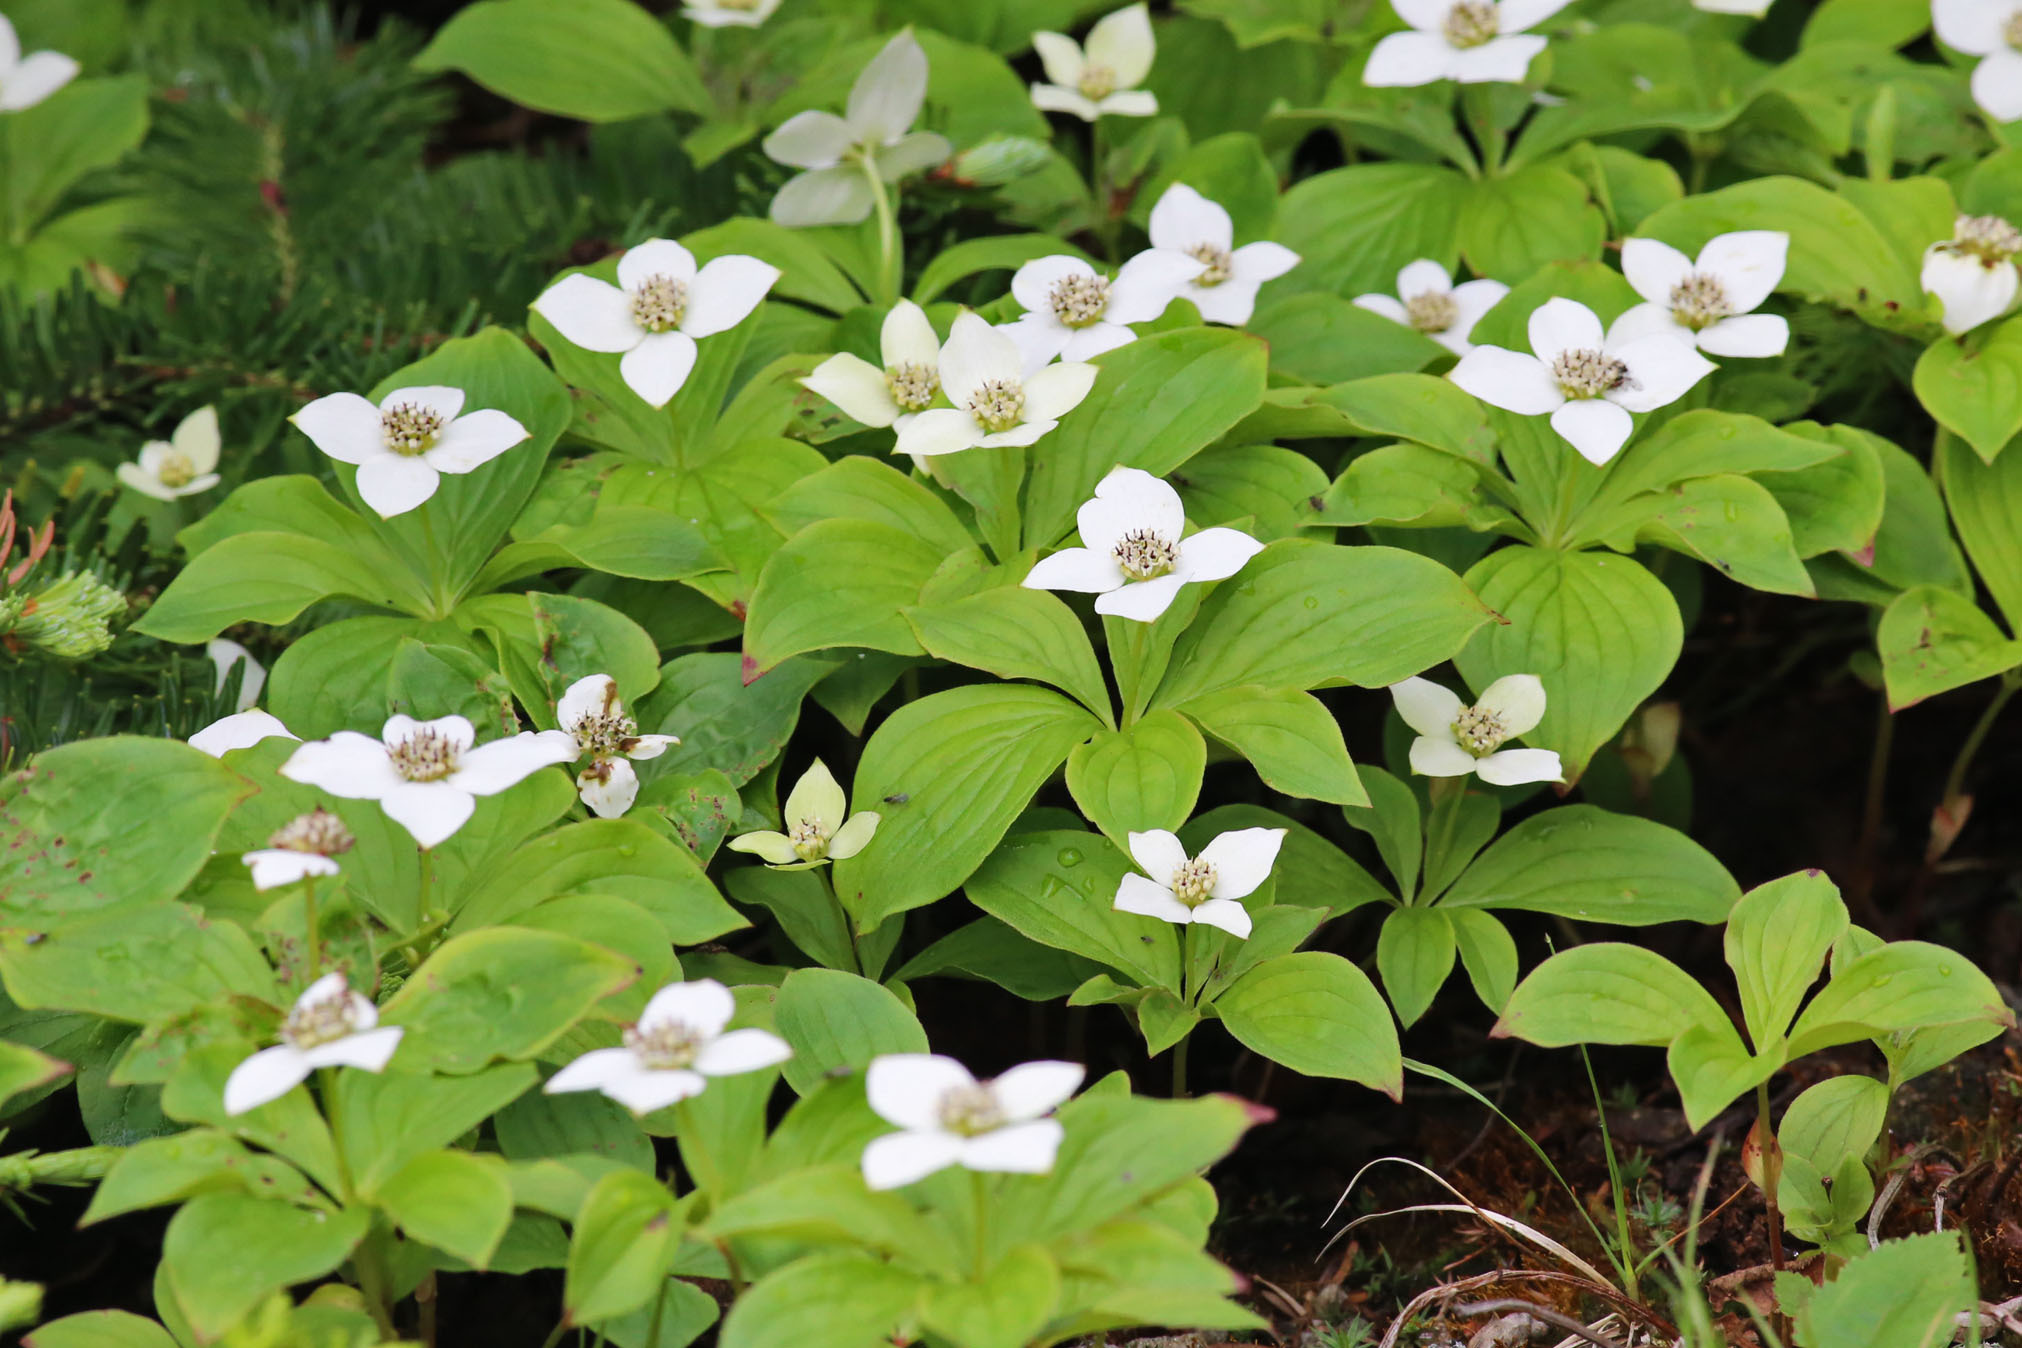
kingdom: Plantae
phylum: Tracheophyta
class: Magnoliopsida
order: Cornales
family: Cornaceae
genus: Cornus
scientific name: Cornus canadensis
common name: Creeping dogwood
